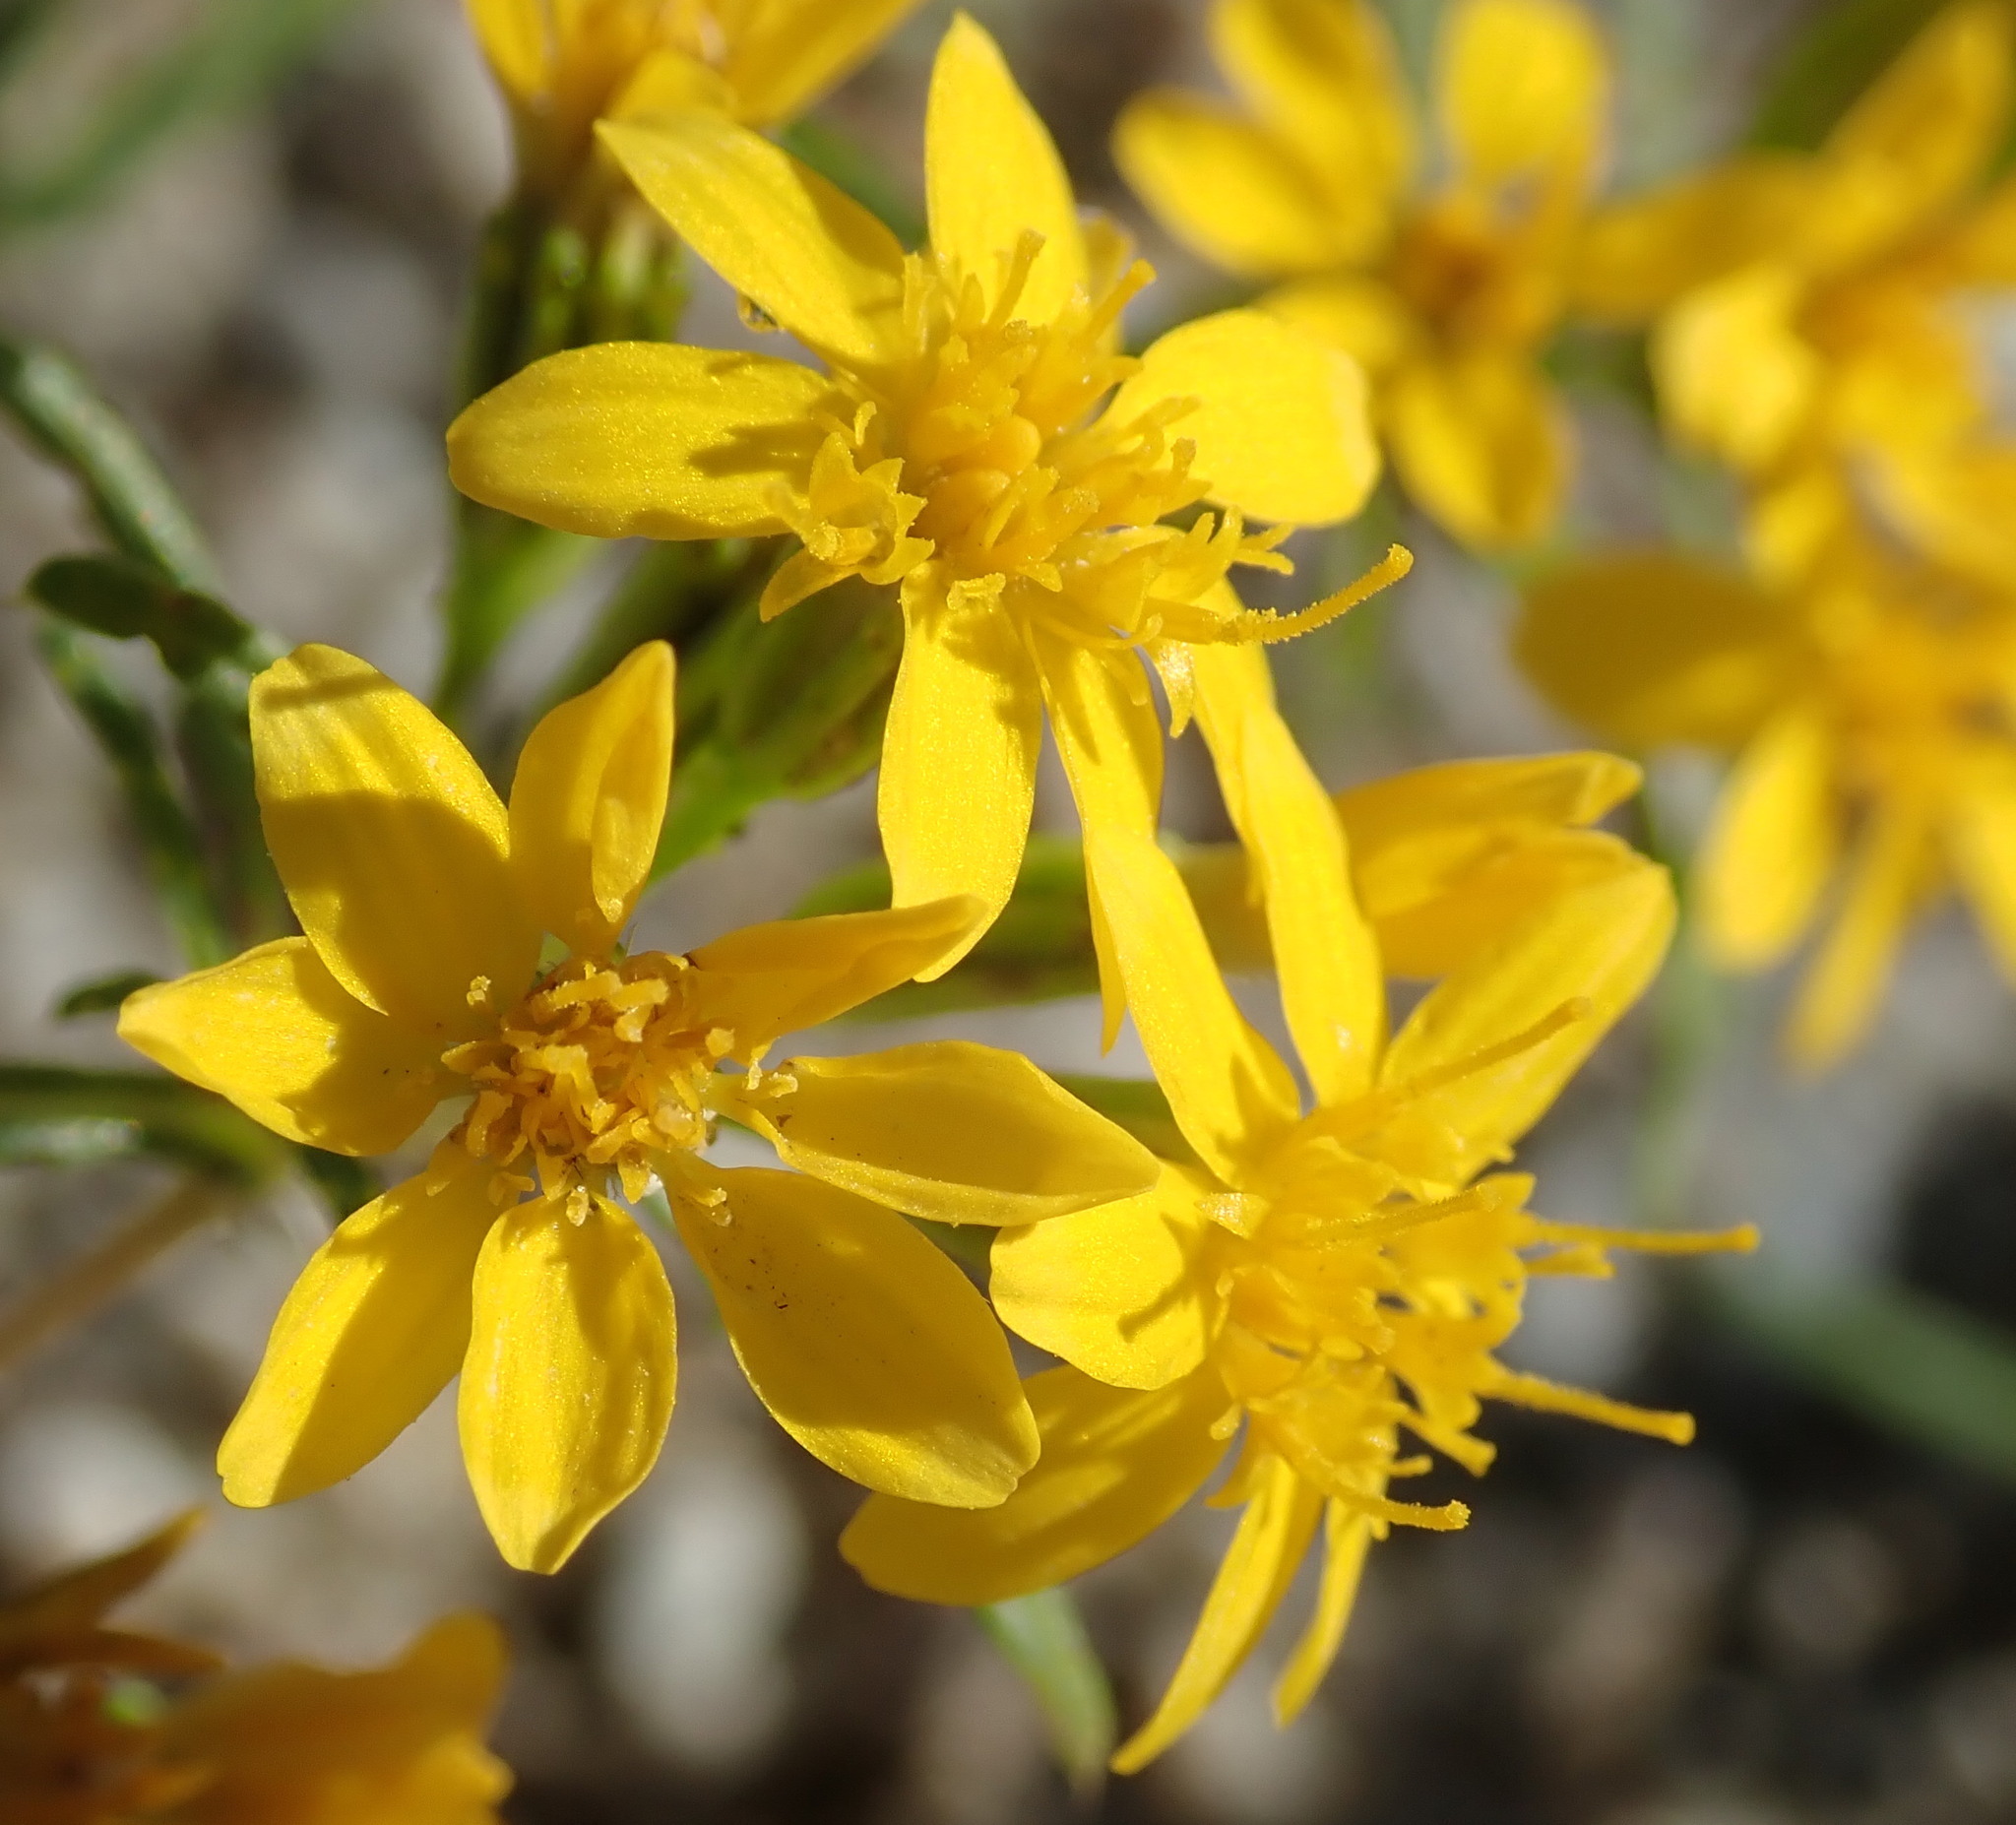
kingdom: Plantae
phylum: Tracheophyta
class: Magnoliopsida
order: Asterales
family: Asteraceae
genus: Pectis
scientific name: Pectis papposa
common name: Many-bristle chinchweed
